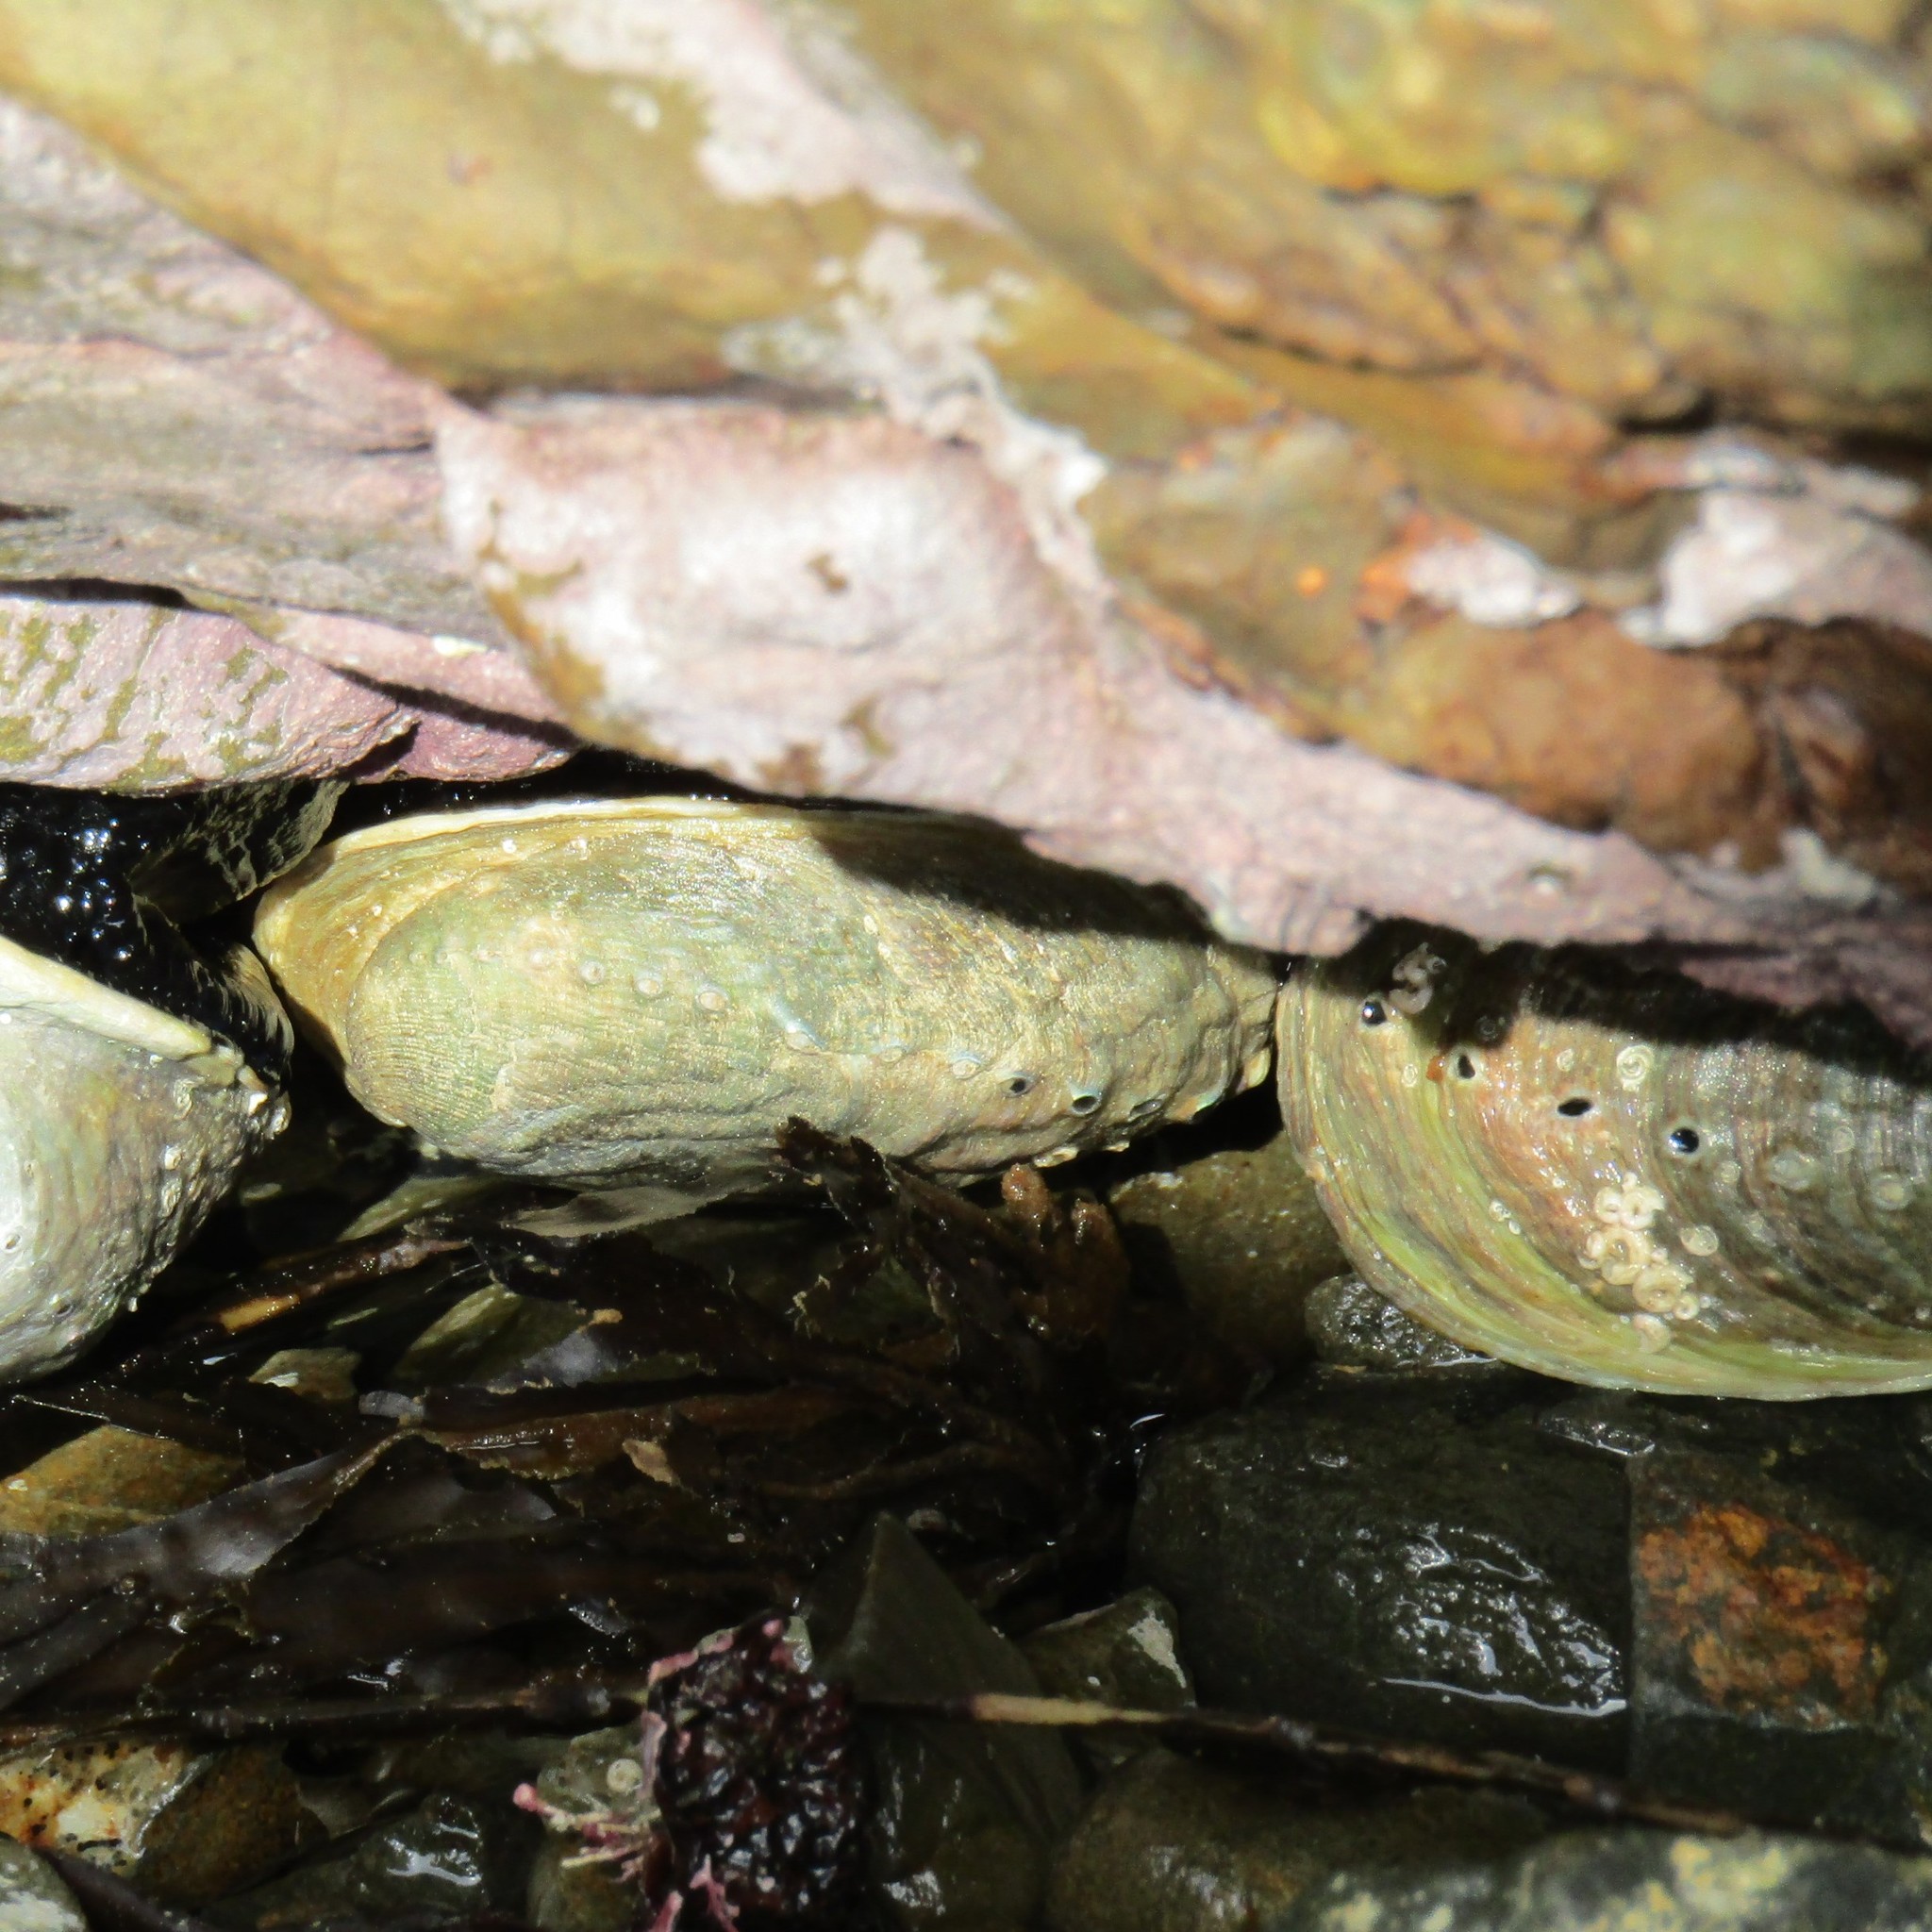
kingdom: Animalia
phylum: Mollusca
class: Gastropoda
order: Lepetellida
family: Haliotidae
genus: Haliotis
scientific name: Haliotis iris
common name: Abalone
